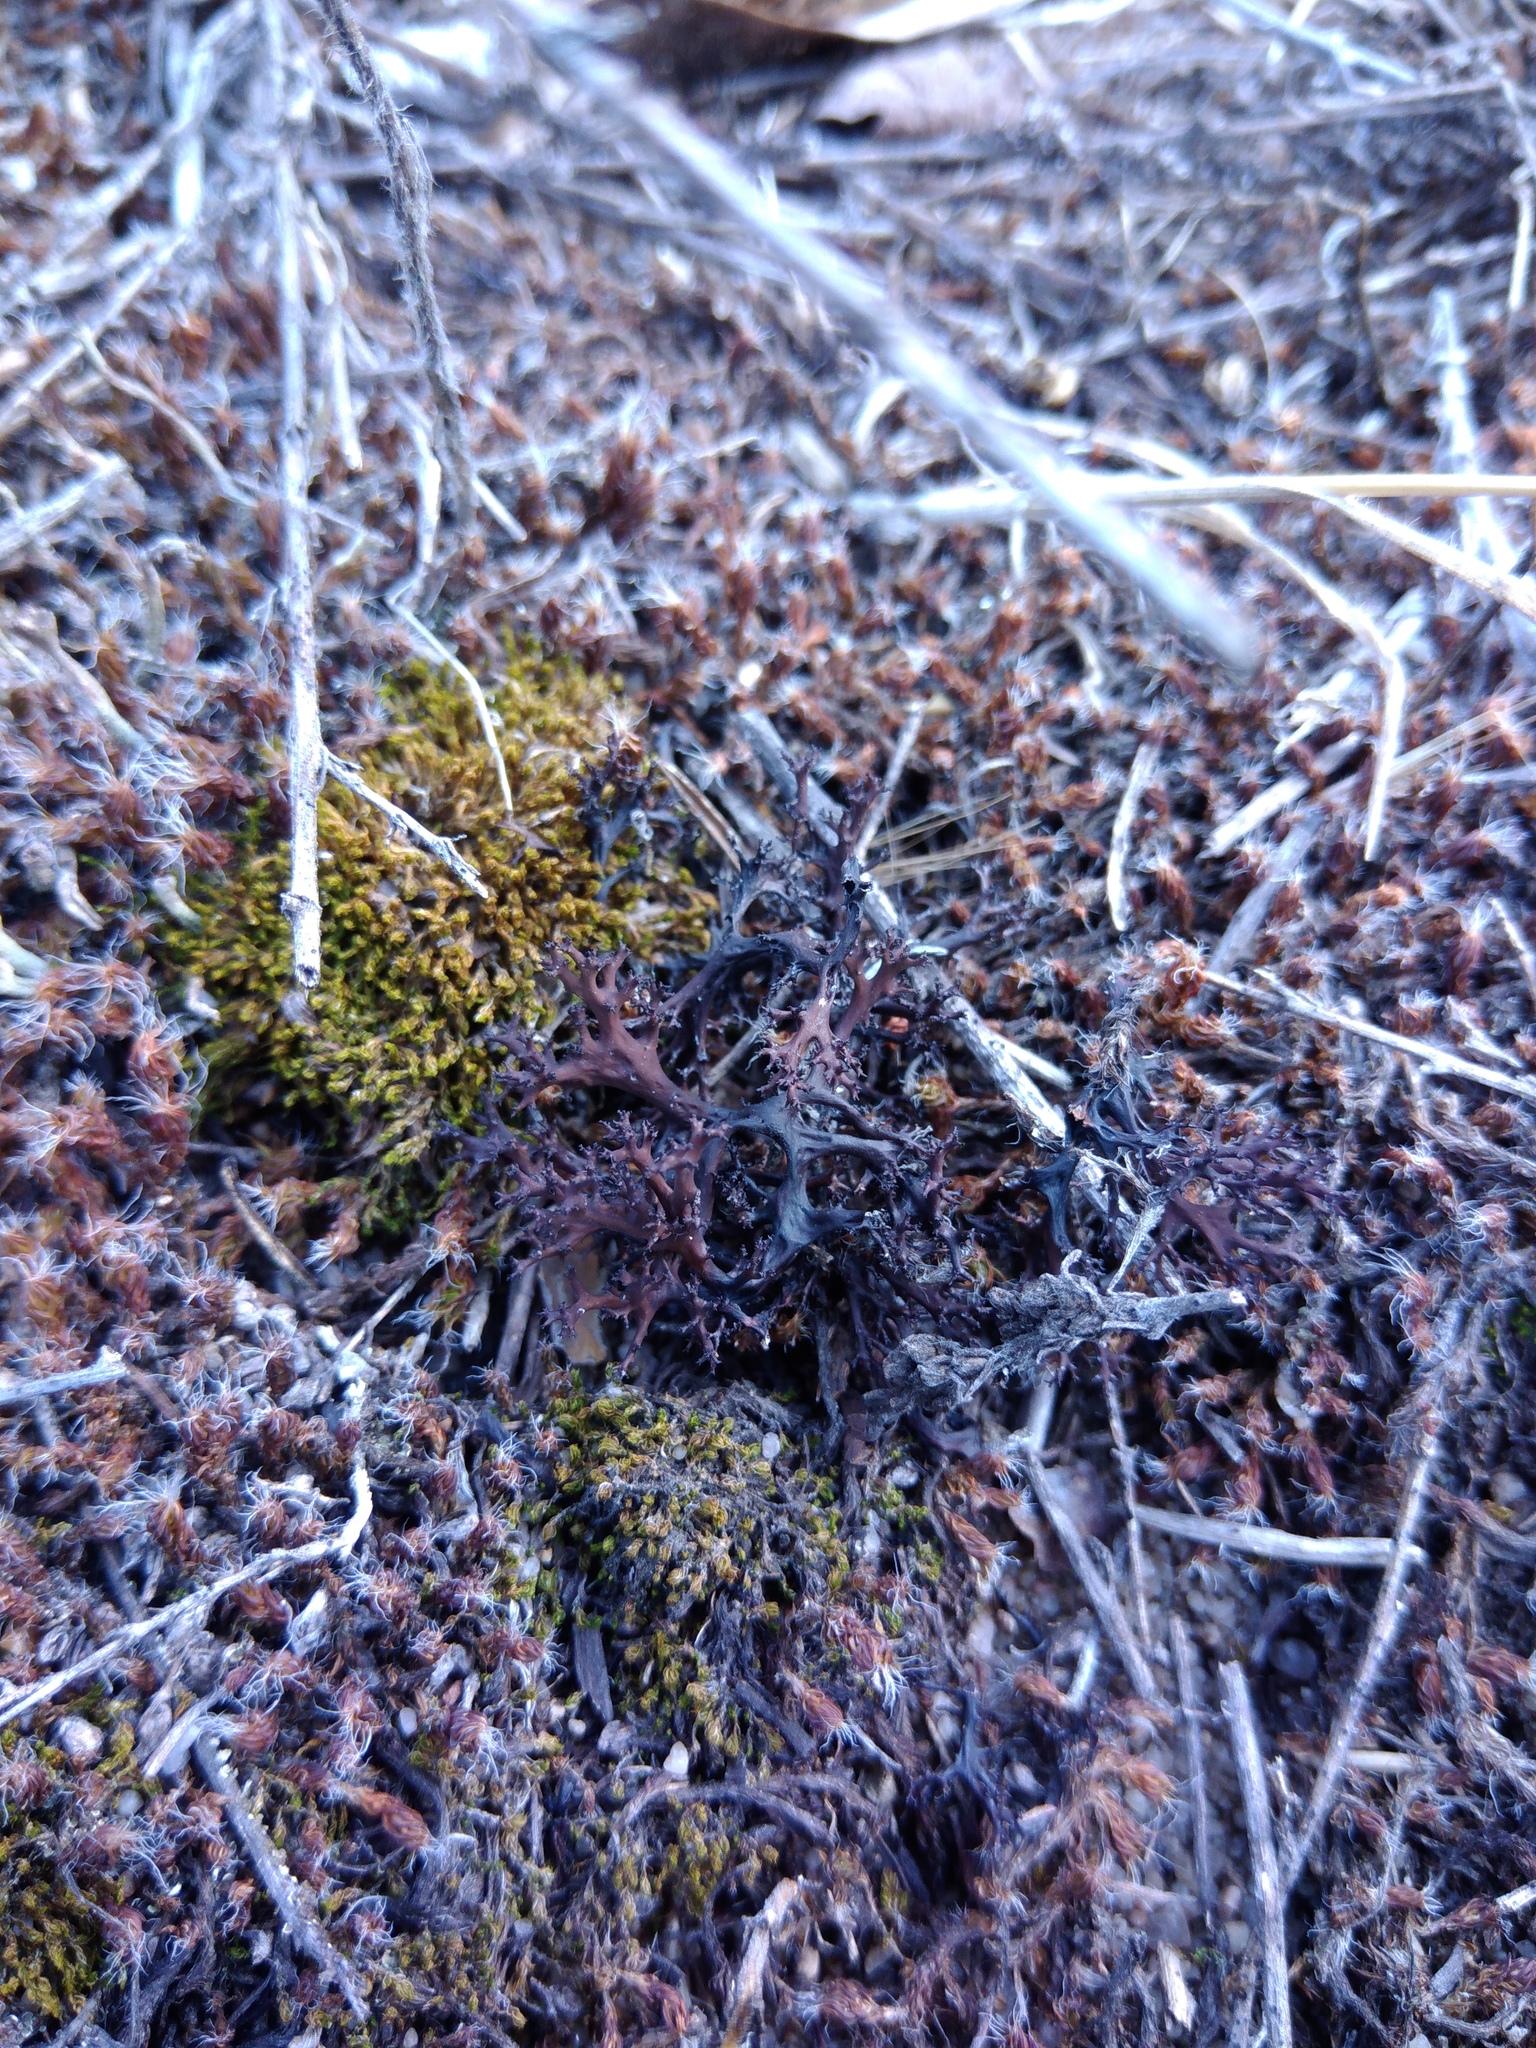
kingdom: Fungi
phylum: Ascomycota
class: Lecanoromycetes
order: Lecanorales
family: Parmeliaceae
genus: Cetraria
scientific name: Cetraria aculeata
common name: Spiny heath lichen
